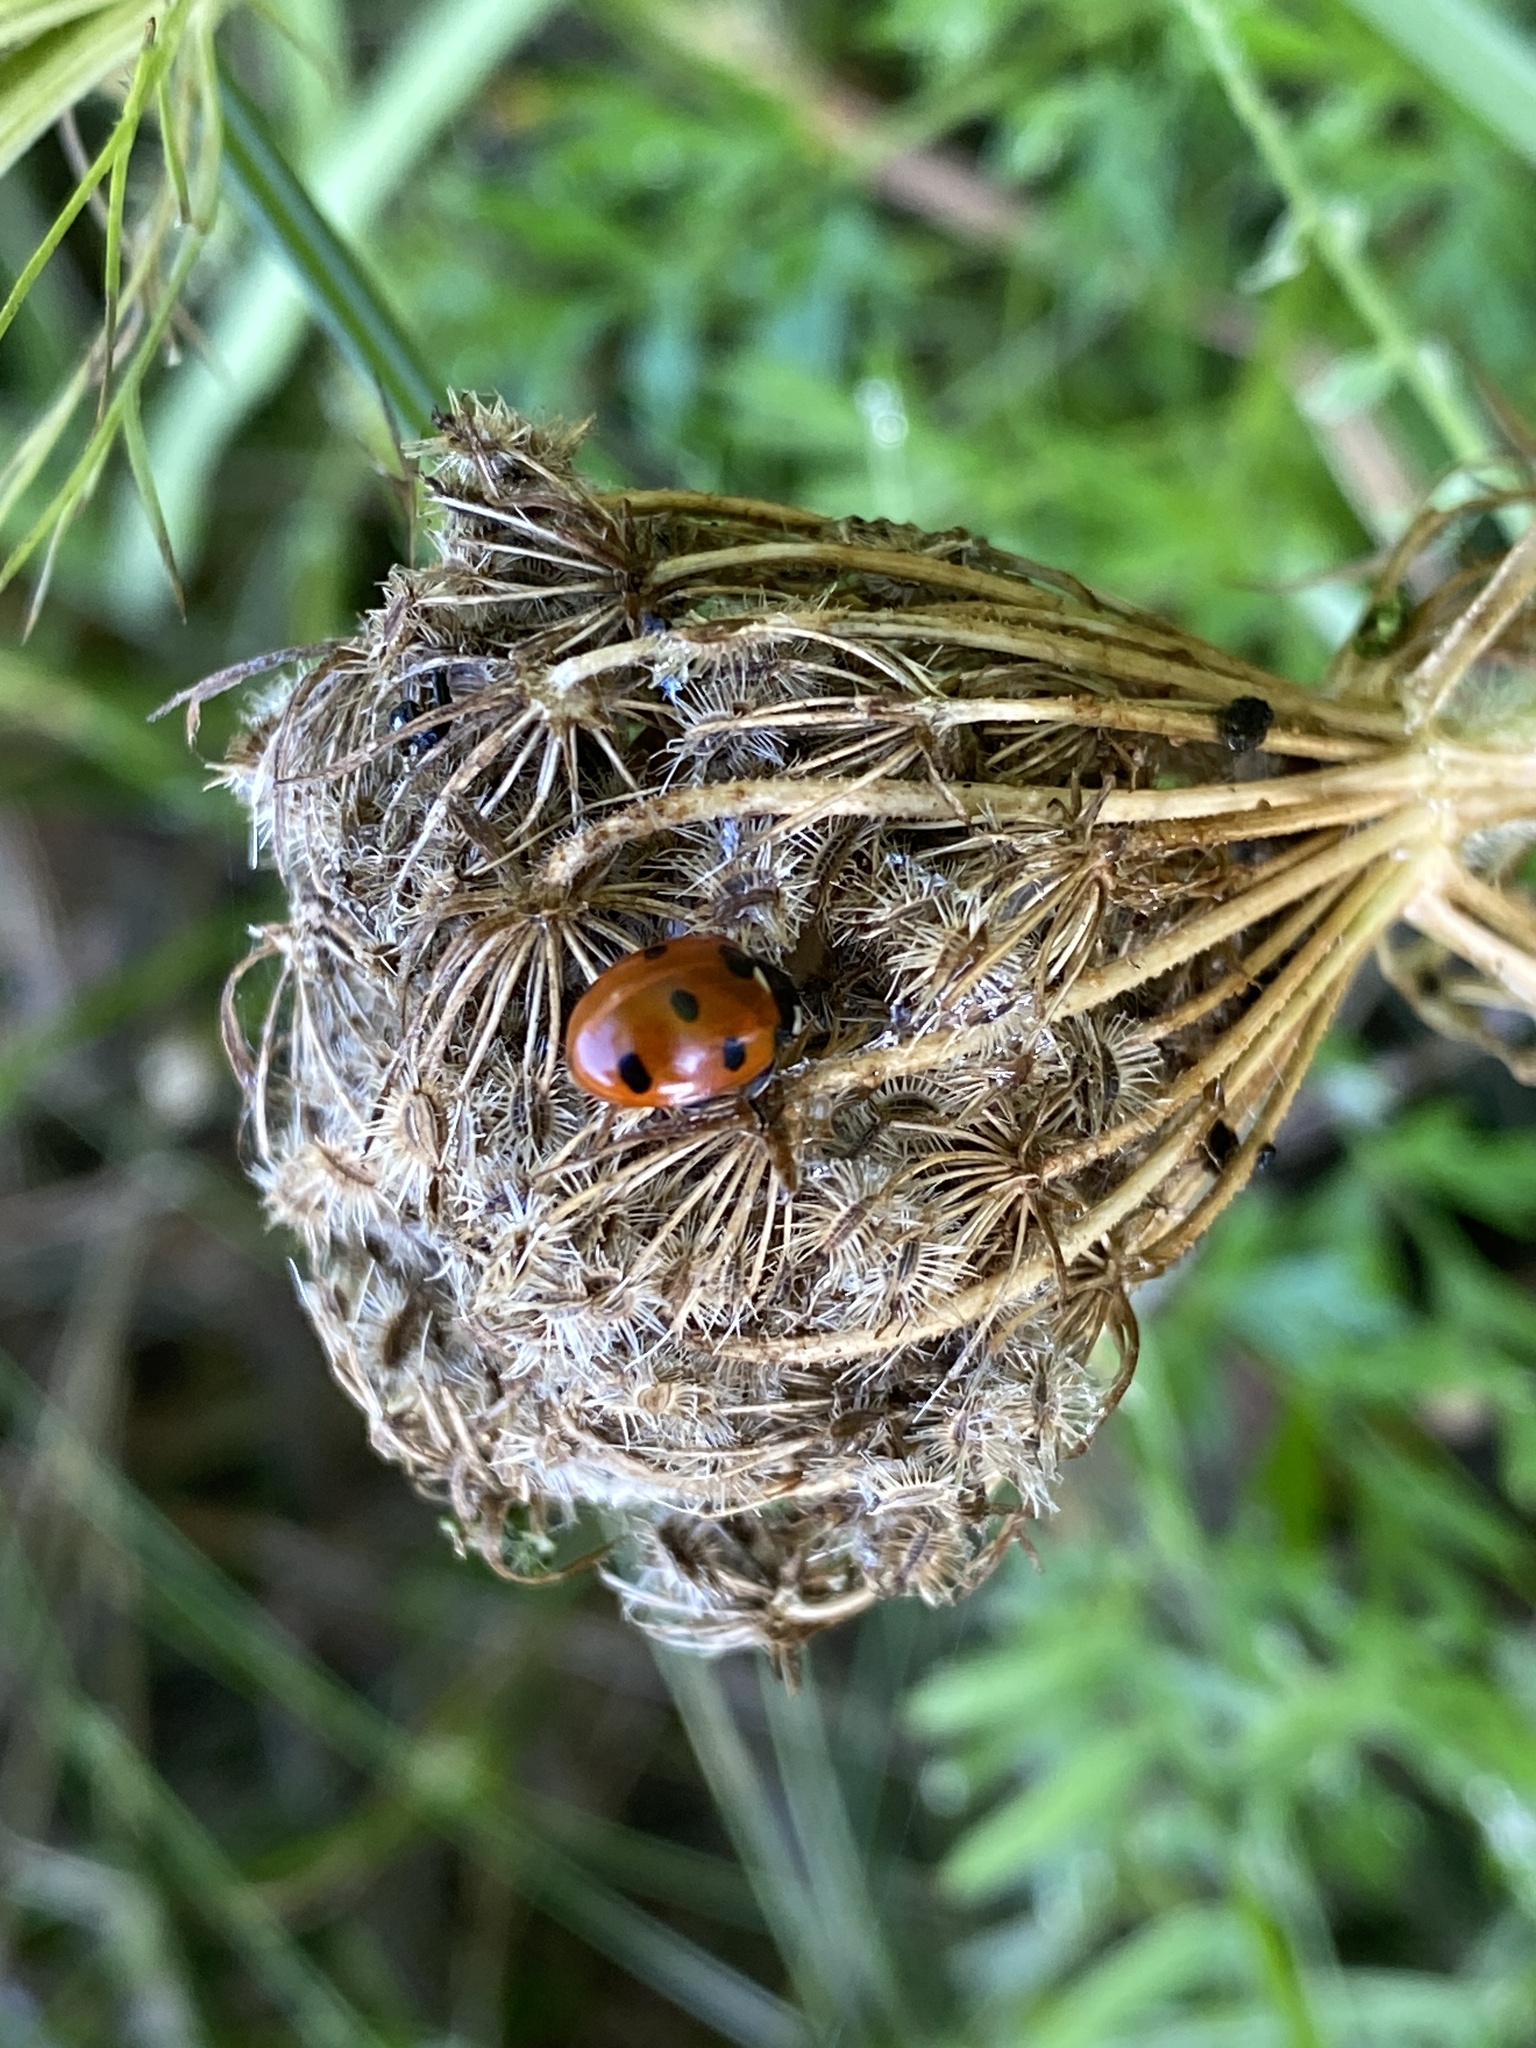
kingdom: Animalia
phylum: Arthropoda
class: Insecta
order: Coleoptera
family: Coccinellidae
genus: Coccinella
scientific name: Coccinella septempunctata
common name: Sevenspotted lady beetle
